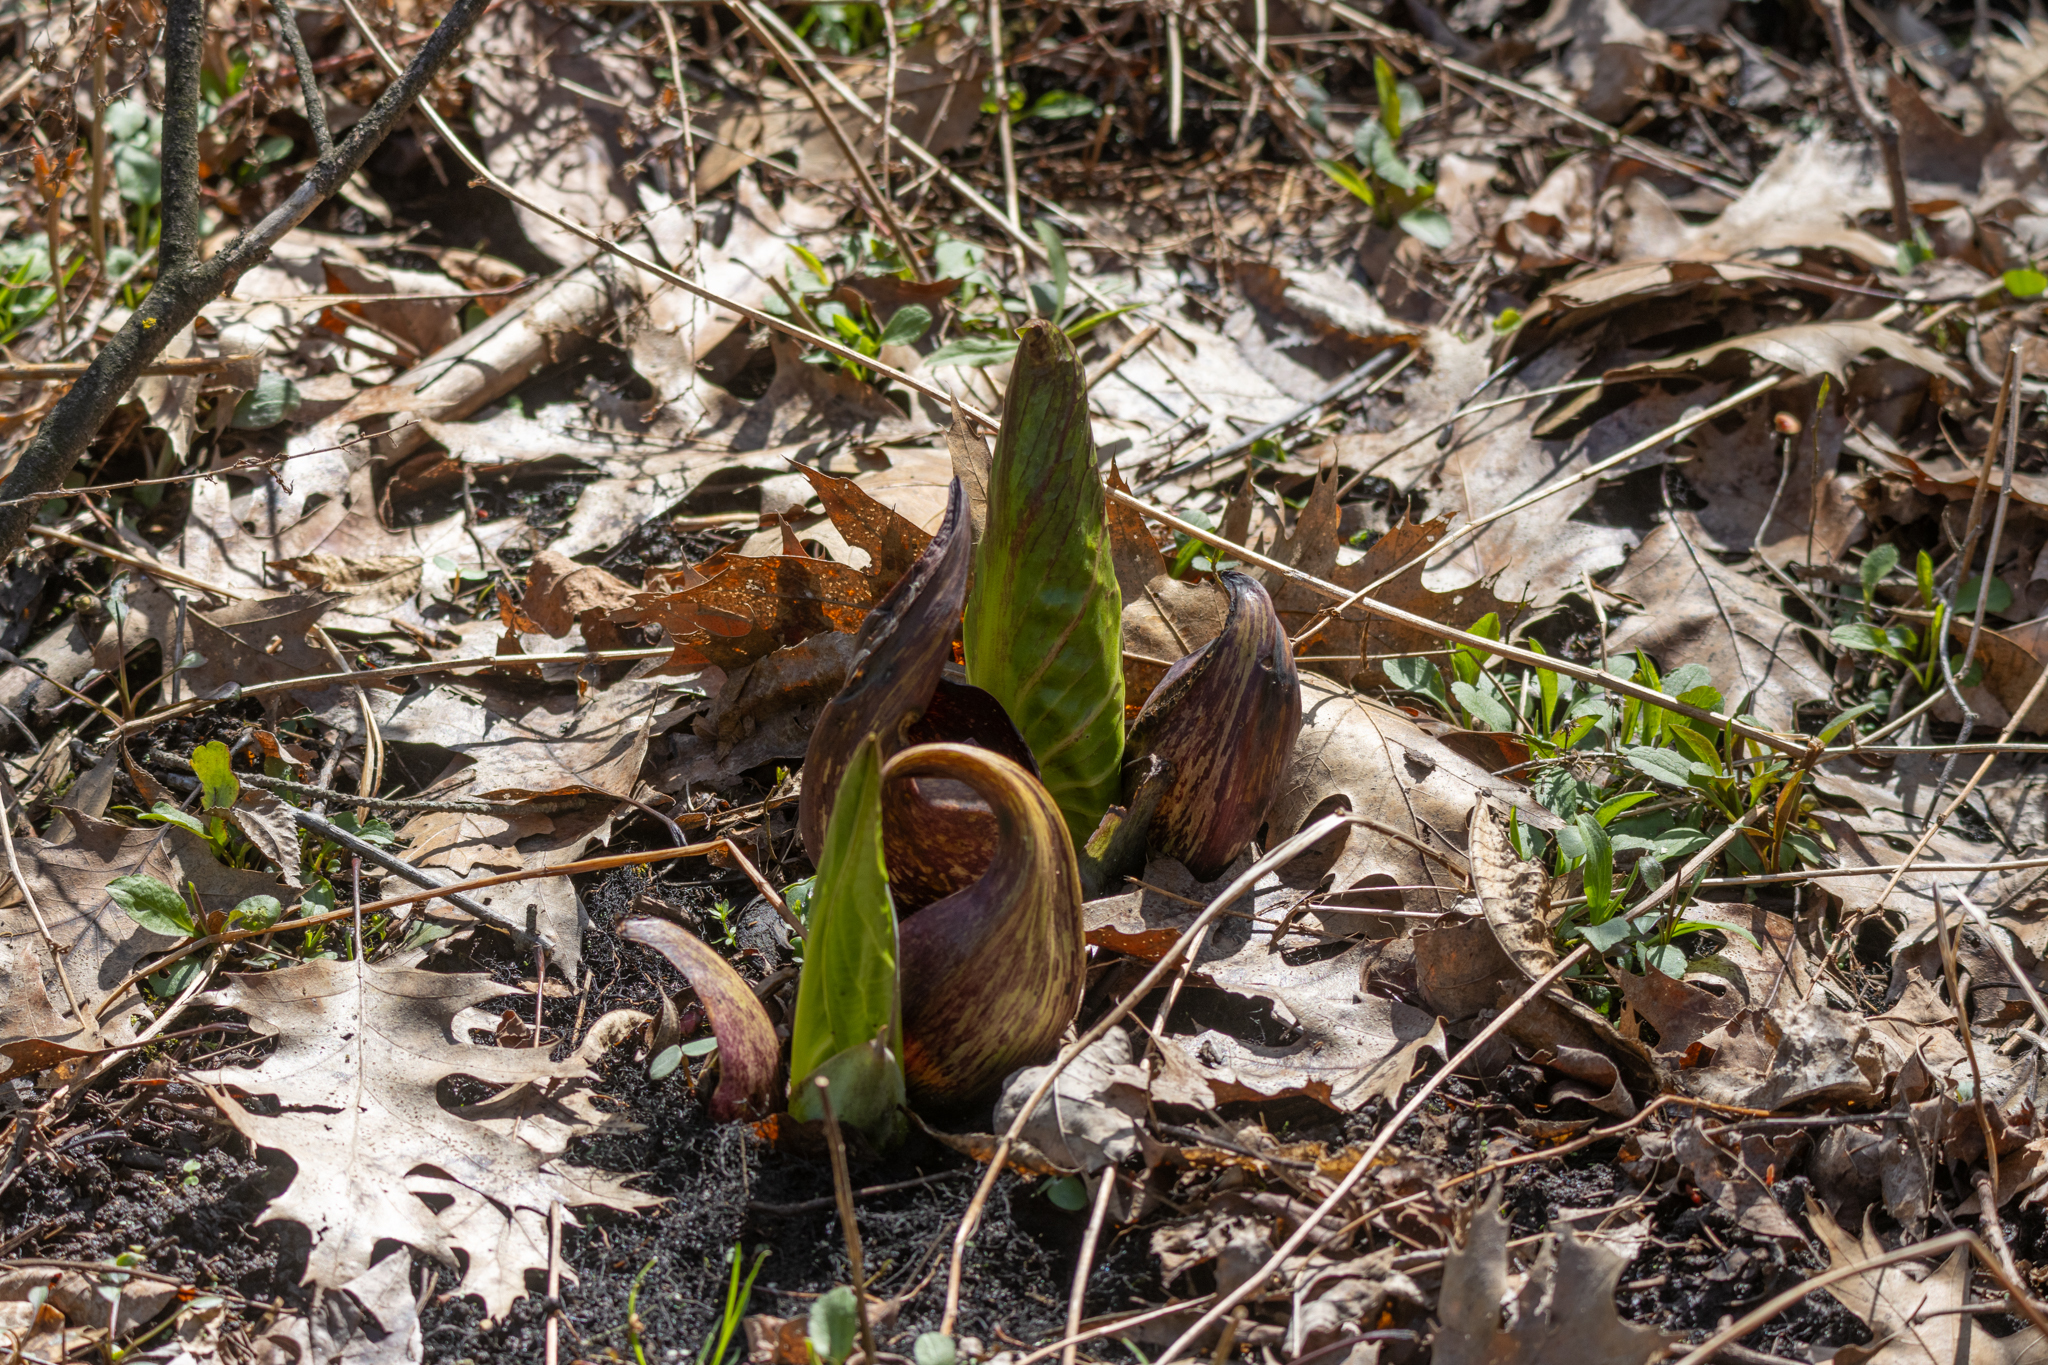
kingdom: Plantae
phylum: Tracheophyta
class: Liliopsida
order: Alismatales
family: Araceae
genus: Symplocarpus
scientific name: Symplocarpus foetidus
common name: Eastern skunk cabbage
